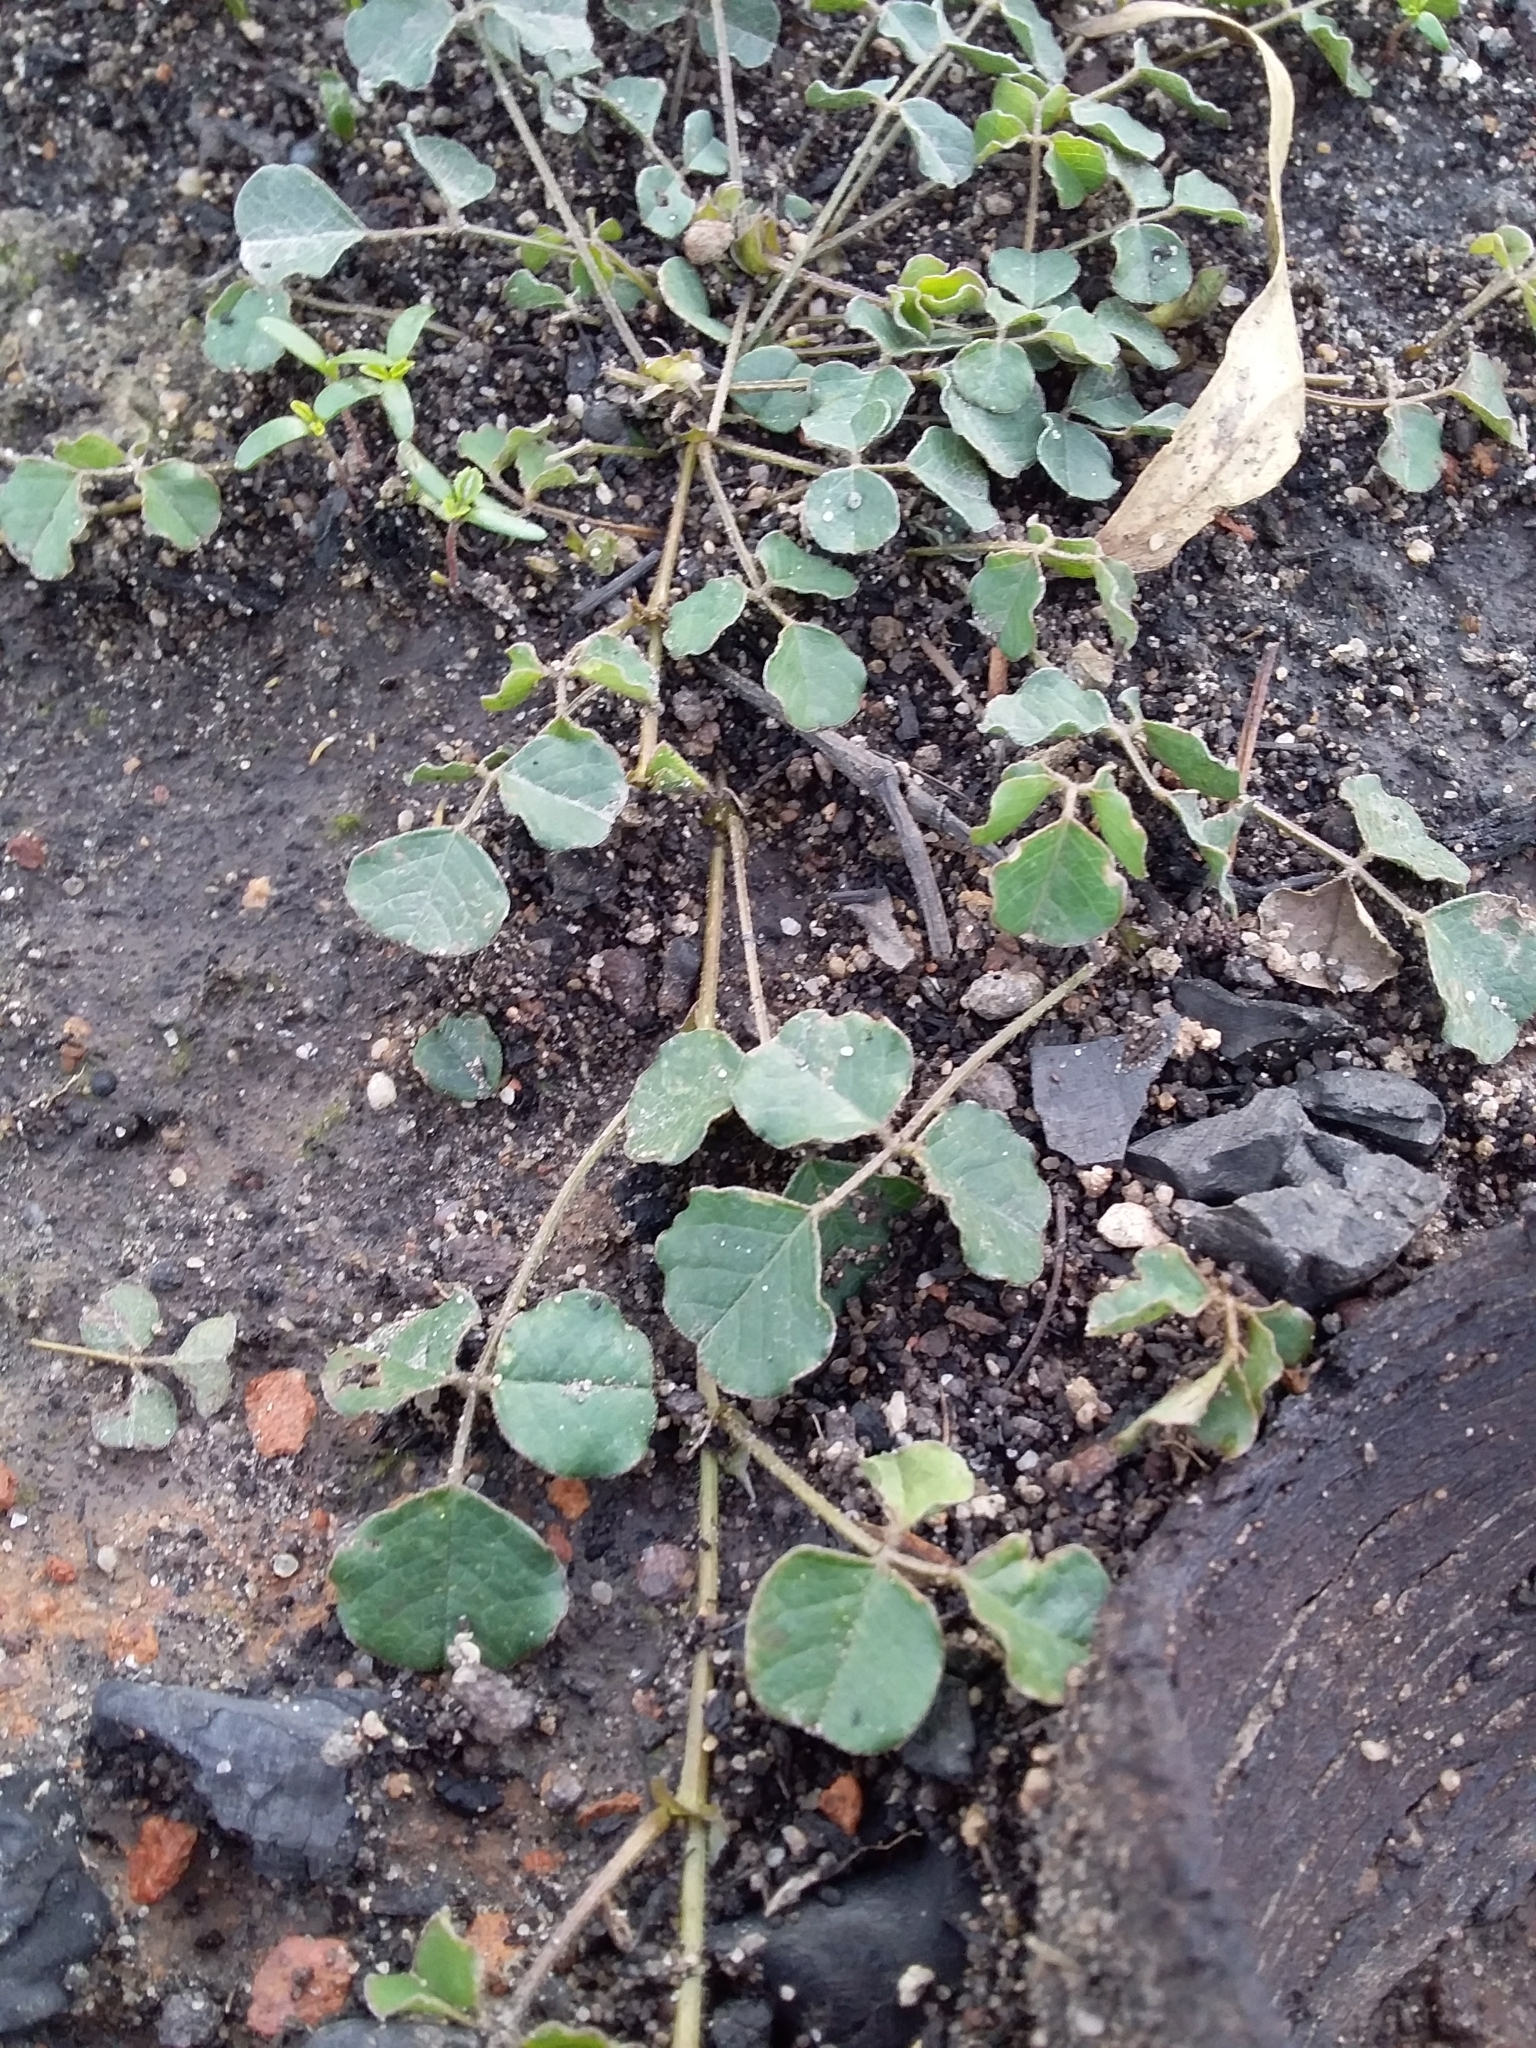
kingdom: Plantae
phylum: Tracheophyta
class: Magnoliopsida
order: Fabales
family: Fabaceae
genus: Kennedia
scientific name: Kennedia prostrata
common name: Running-postman
